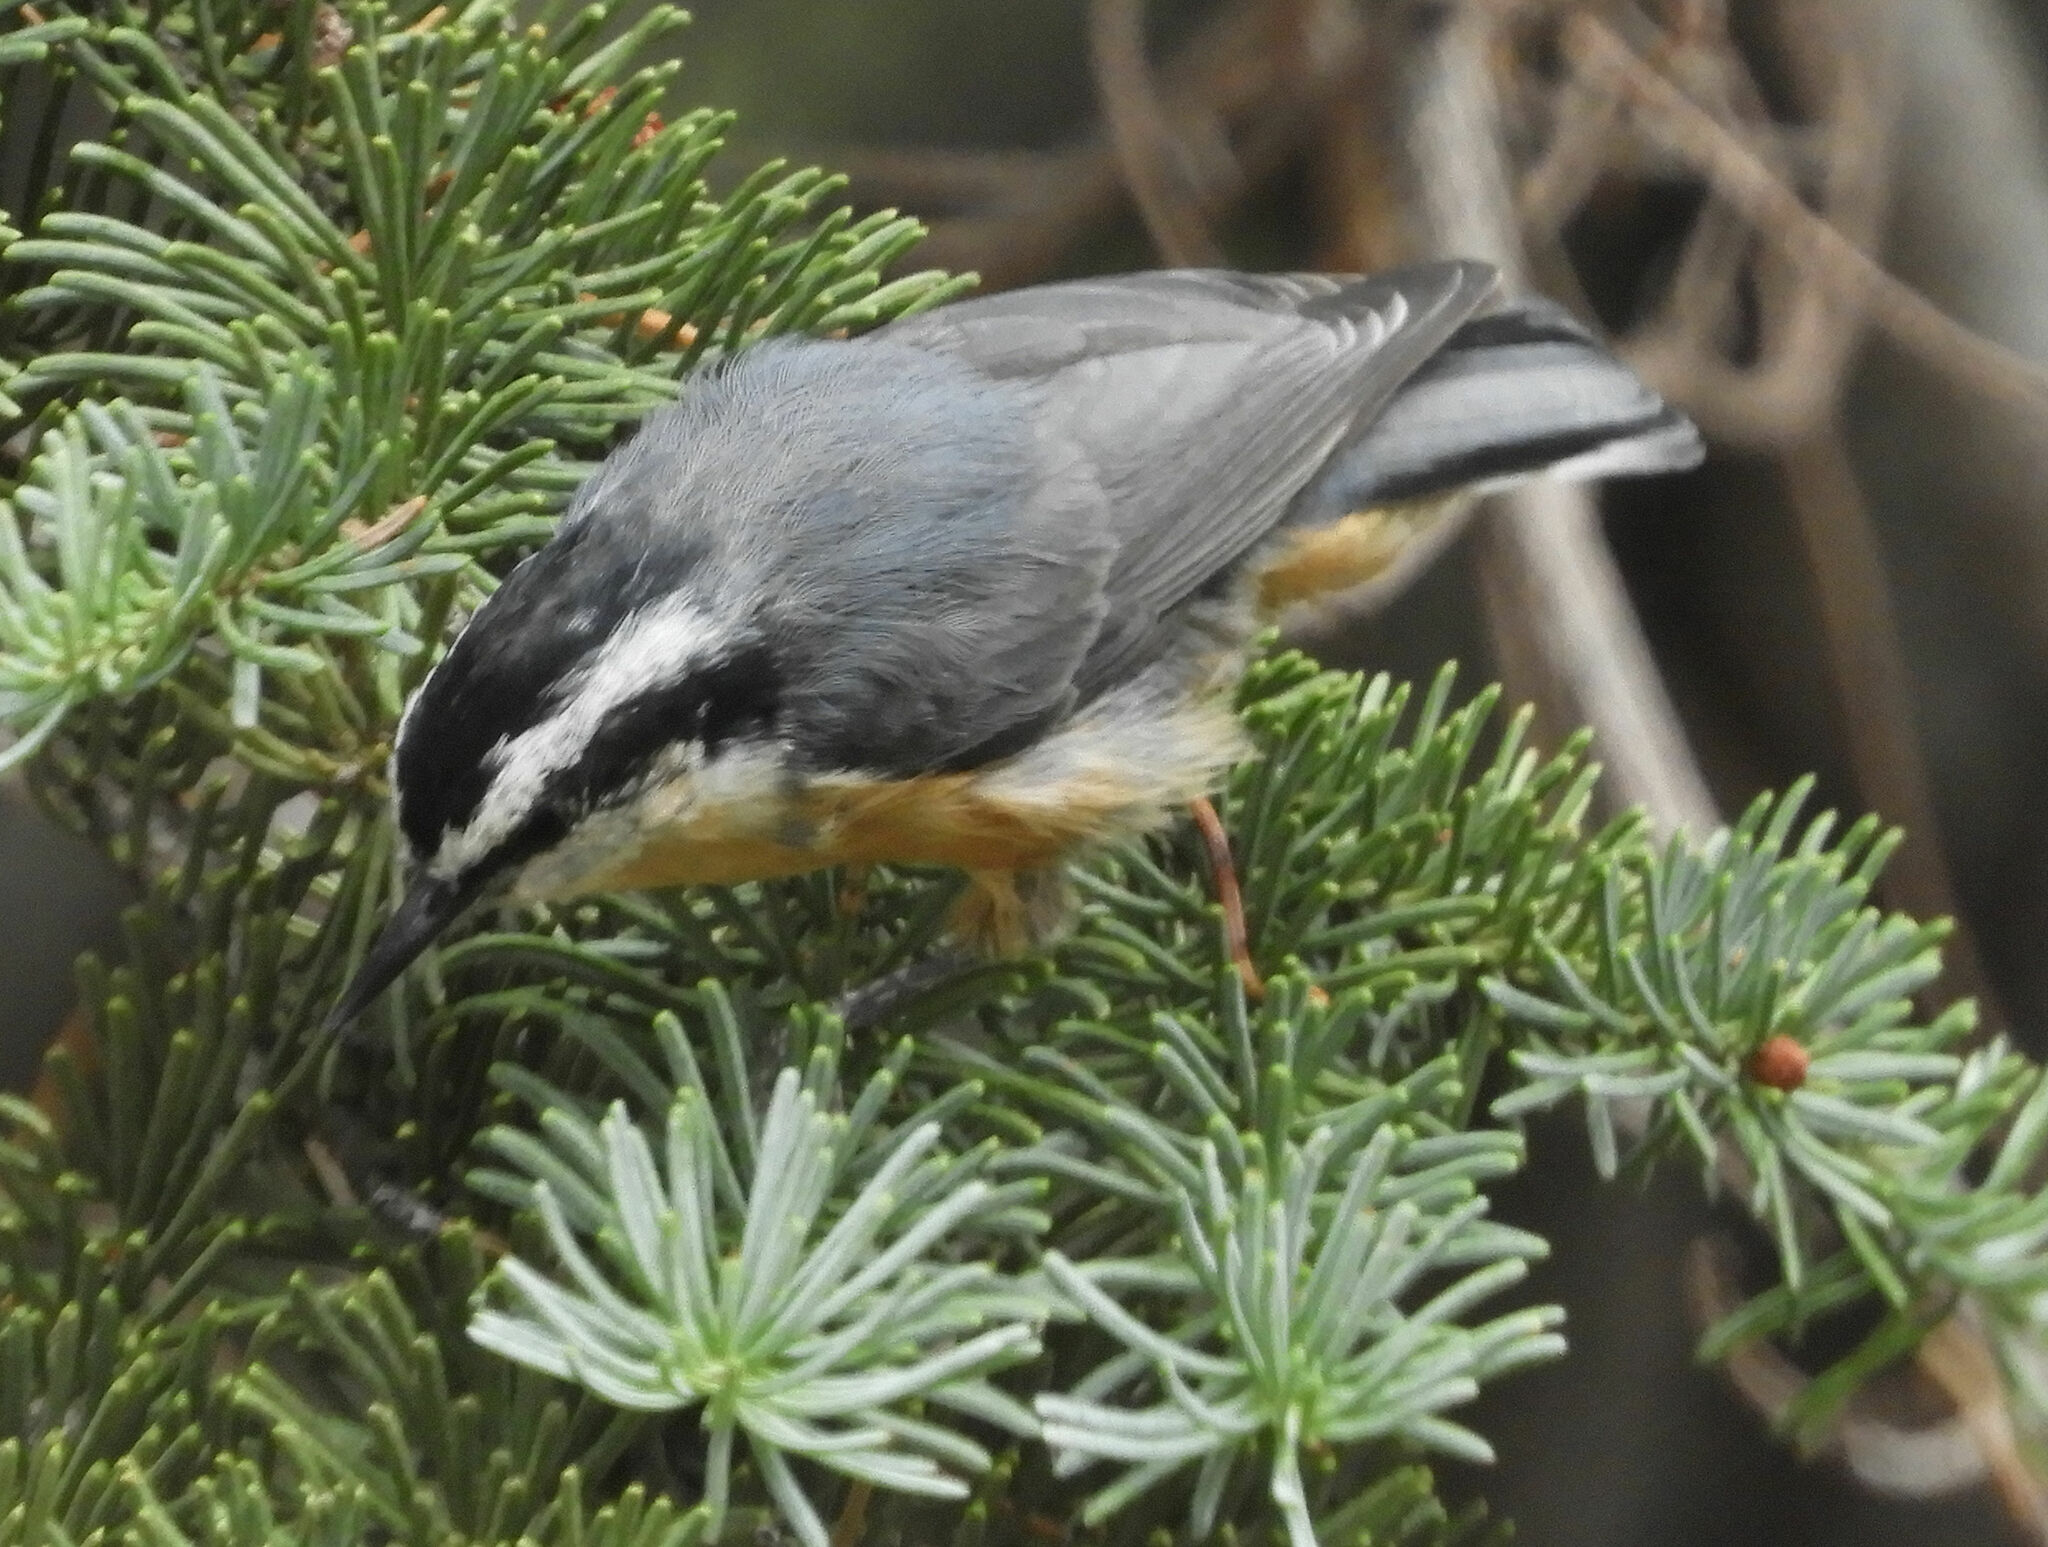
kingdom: Animalia
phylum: Chordata
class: Aves
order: Passeriformes
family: Sittidae
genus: Sitta
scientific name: Sitta canadensis
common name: Red-breasted nuthatch
